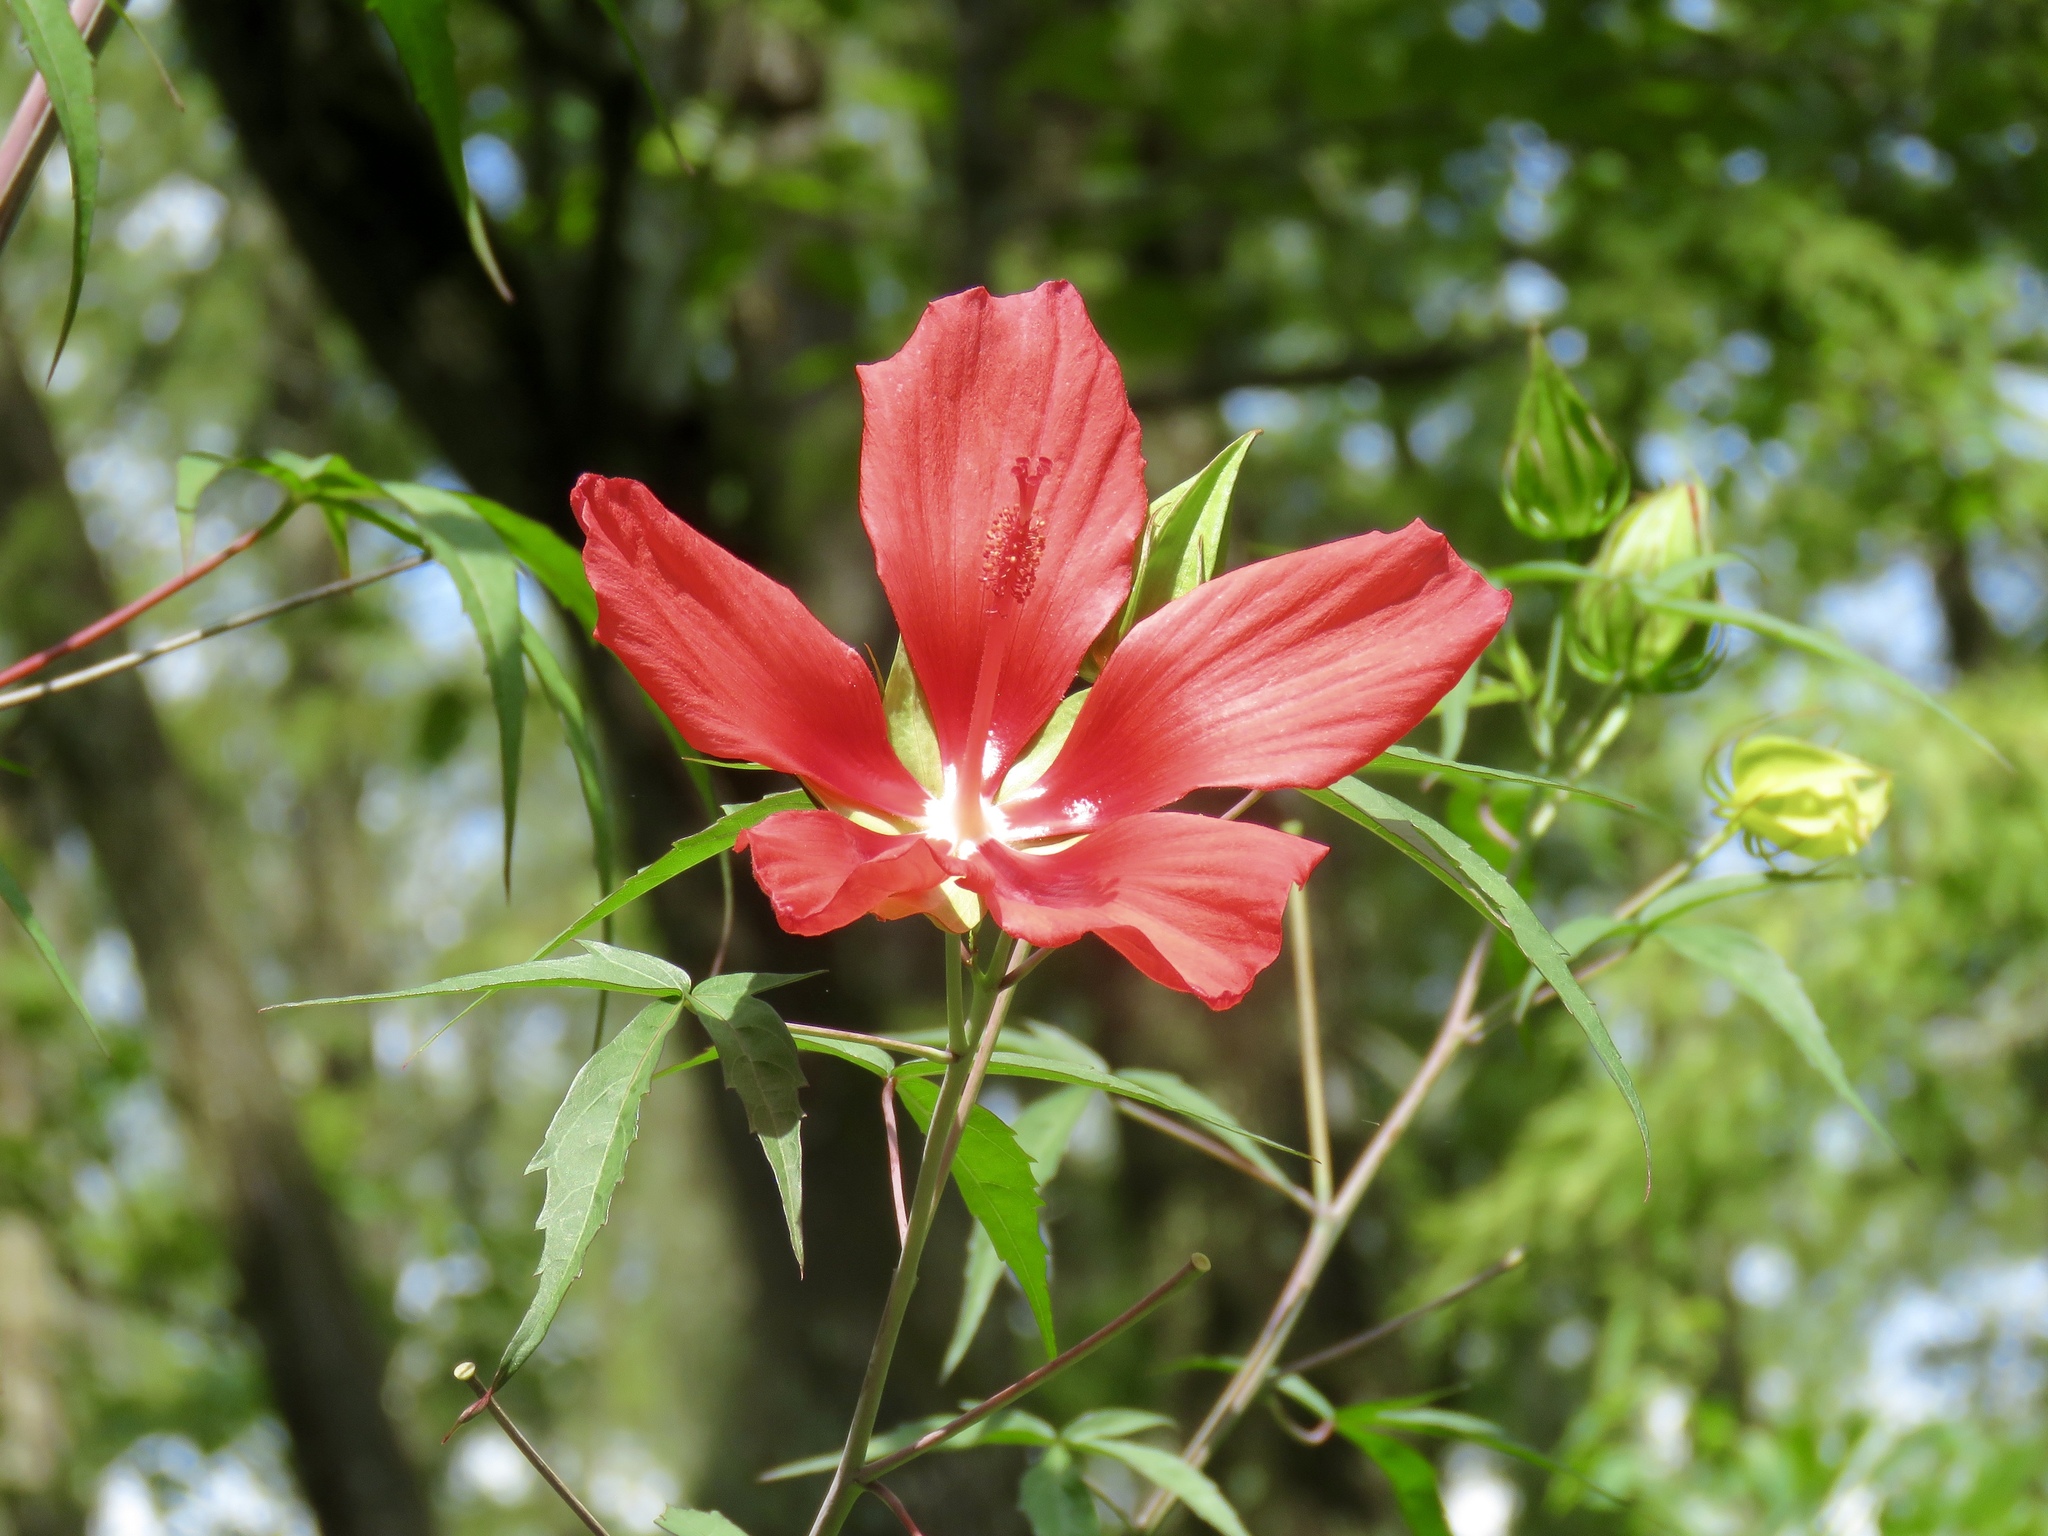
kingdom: Plantae
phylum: Tracheophyta
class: Magnoliopsida
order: Malvales
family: Malvaceae
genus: Hibiscus
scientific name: Hibiscus coccineus
